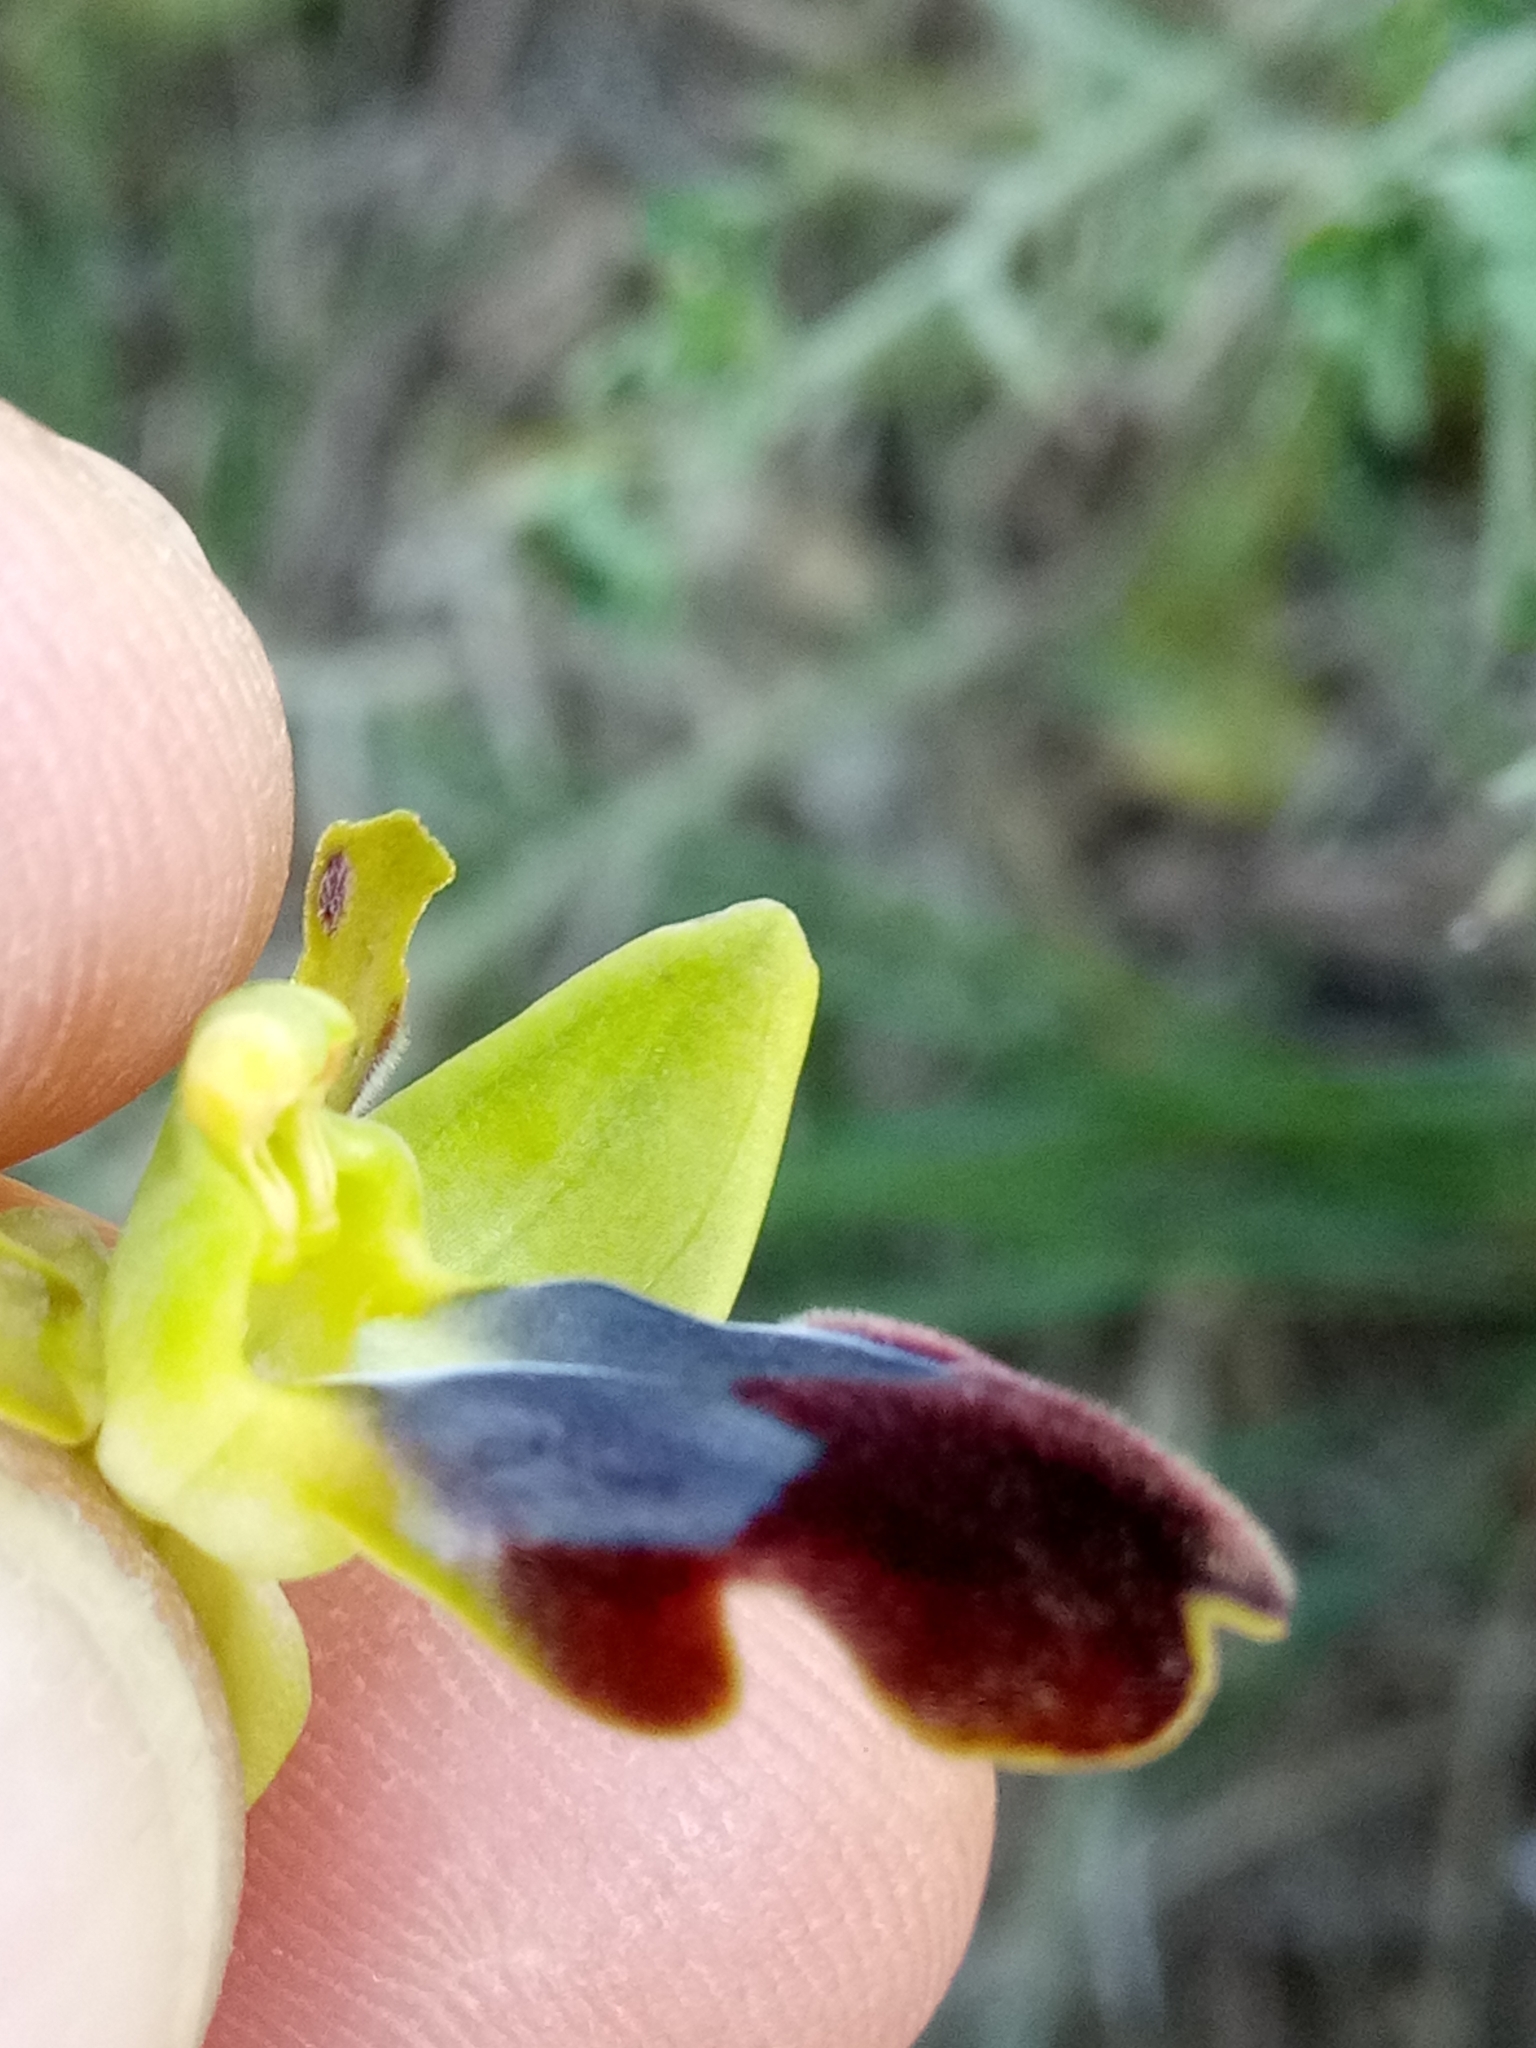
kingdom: Plantae
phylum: Tracheophyta
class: Liliopsida
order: Asparagales
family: Orchidaceae
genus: Ophrys
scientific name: Ophrys fusca
